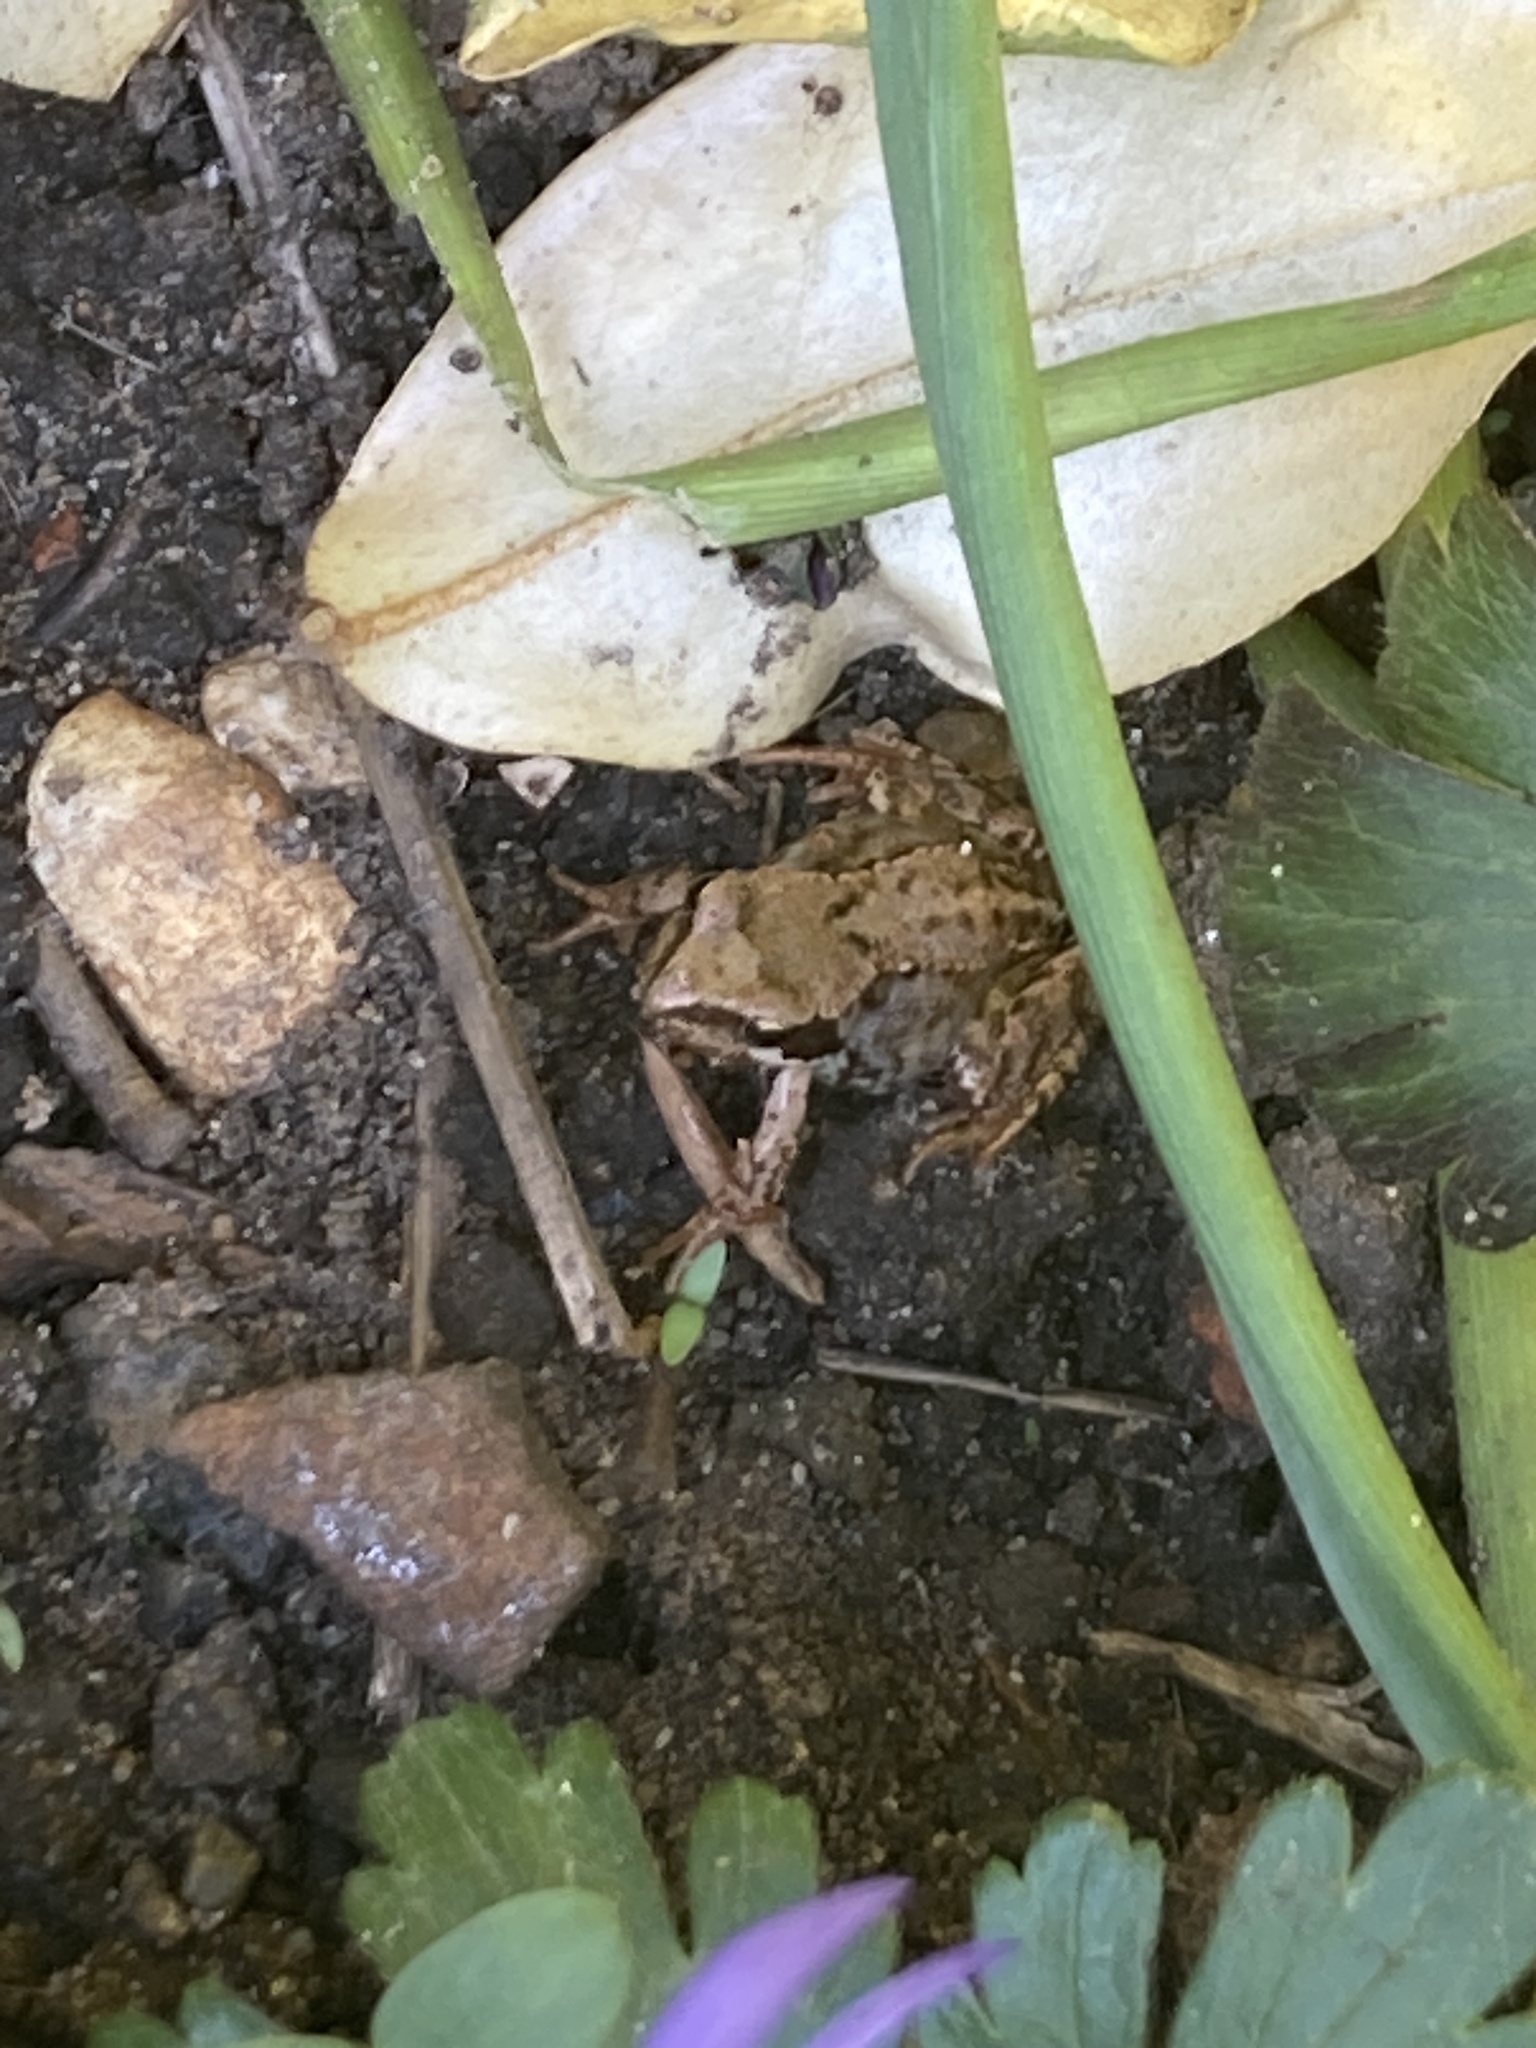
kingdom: Animalia
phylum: Chordata
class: Amphibia
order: Anura
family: Ranidae
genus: Rana
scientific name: Rana temporaria
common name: Common frog
